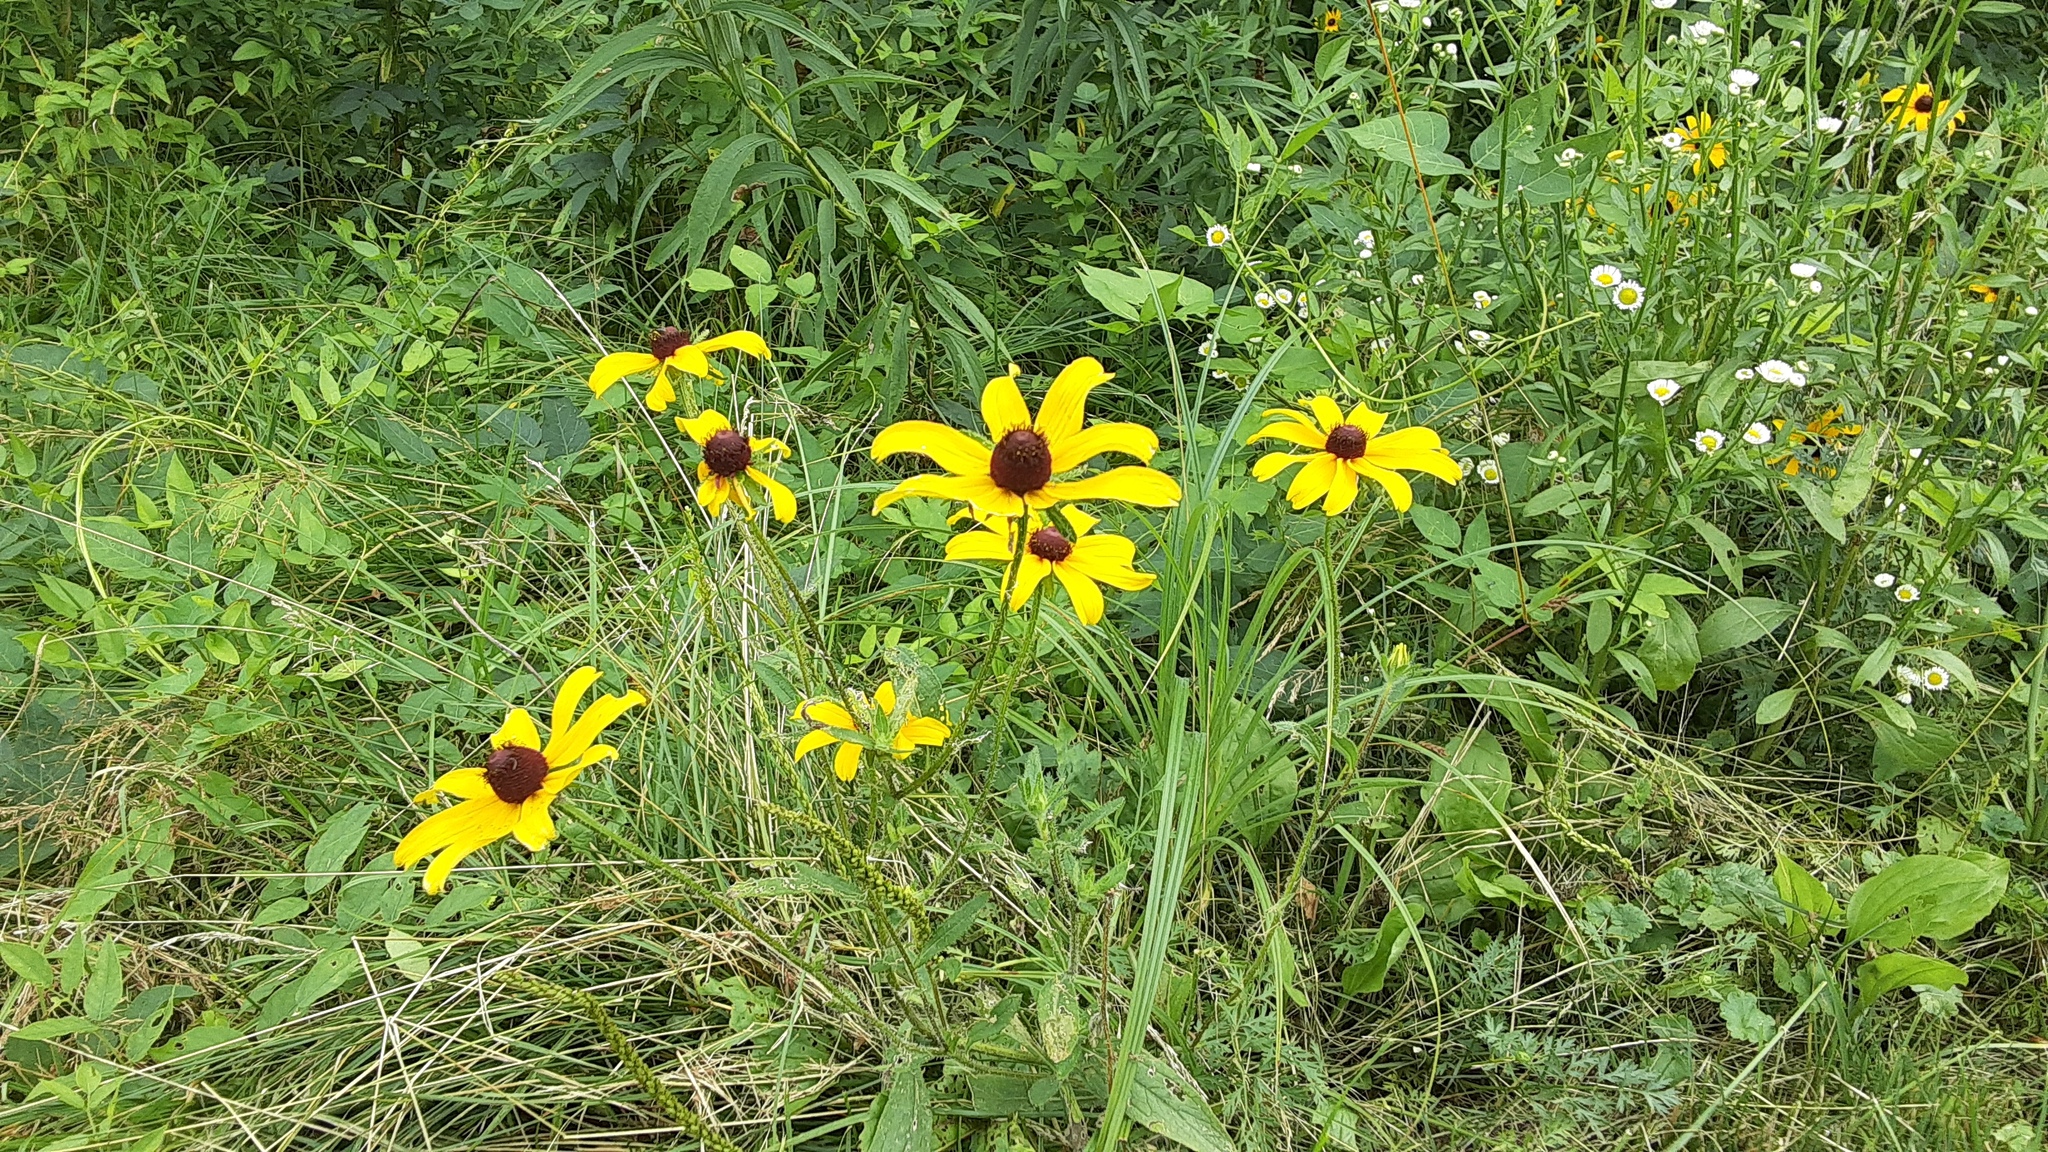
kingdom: Plantae
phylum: Tracheophyta
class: Magnoliopsida
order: Asterales
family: Asteraceae
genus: Rudbeckia
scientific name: Rudbeckia hirta
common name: Black-eyed-susan
